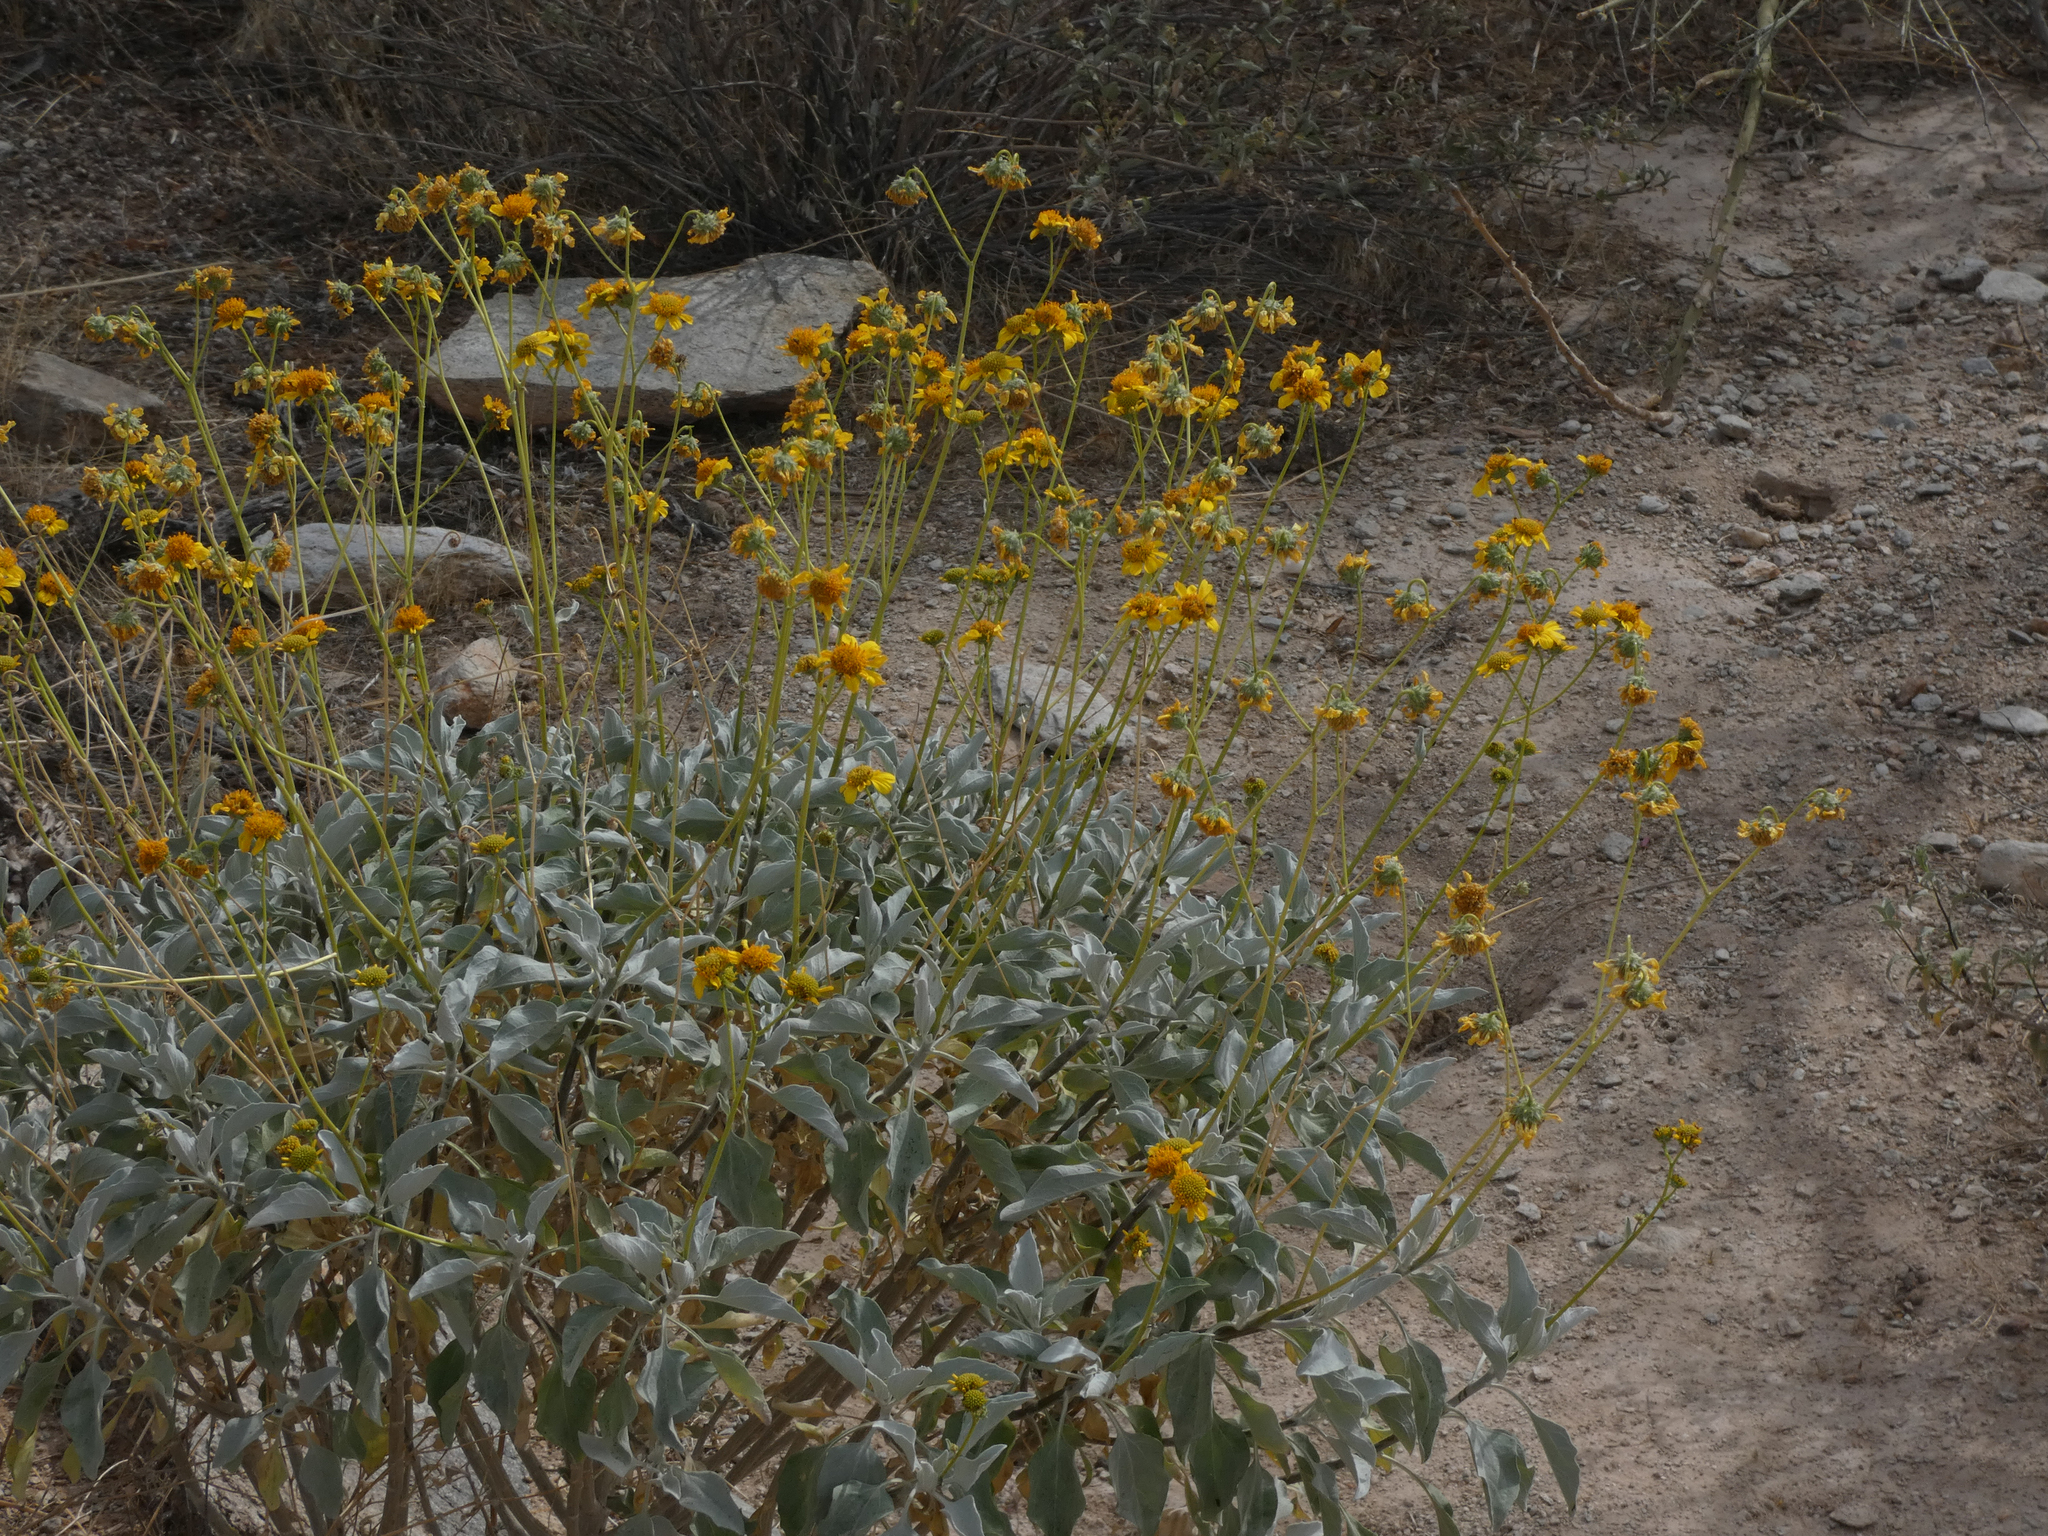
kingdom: Plantae
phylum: Tracheophyta
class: Magnoliopsida
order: Asterales
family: Asteraceae
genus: Encelia
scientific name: Encelia farinosa
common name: Brittlebush
